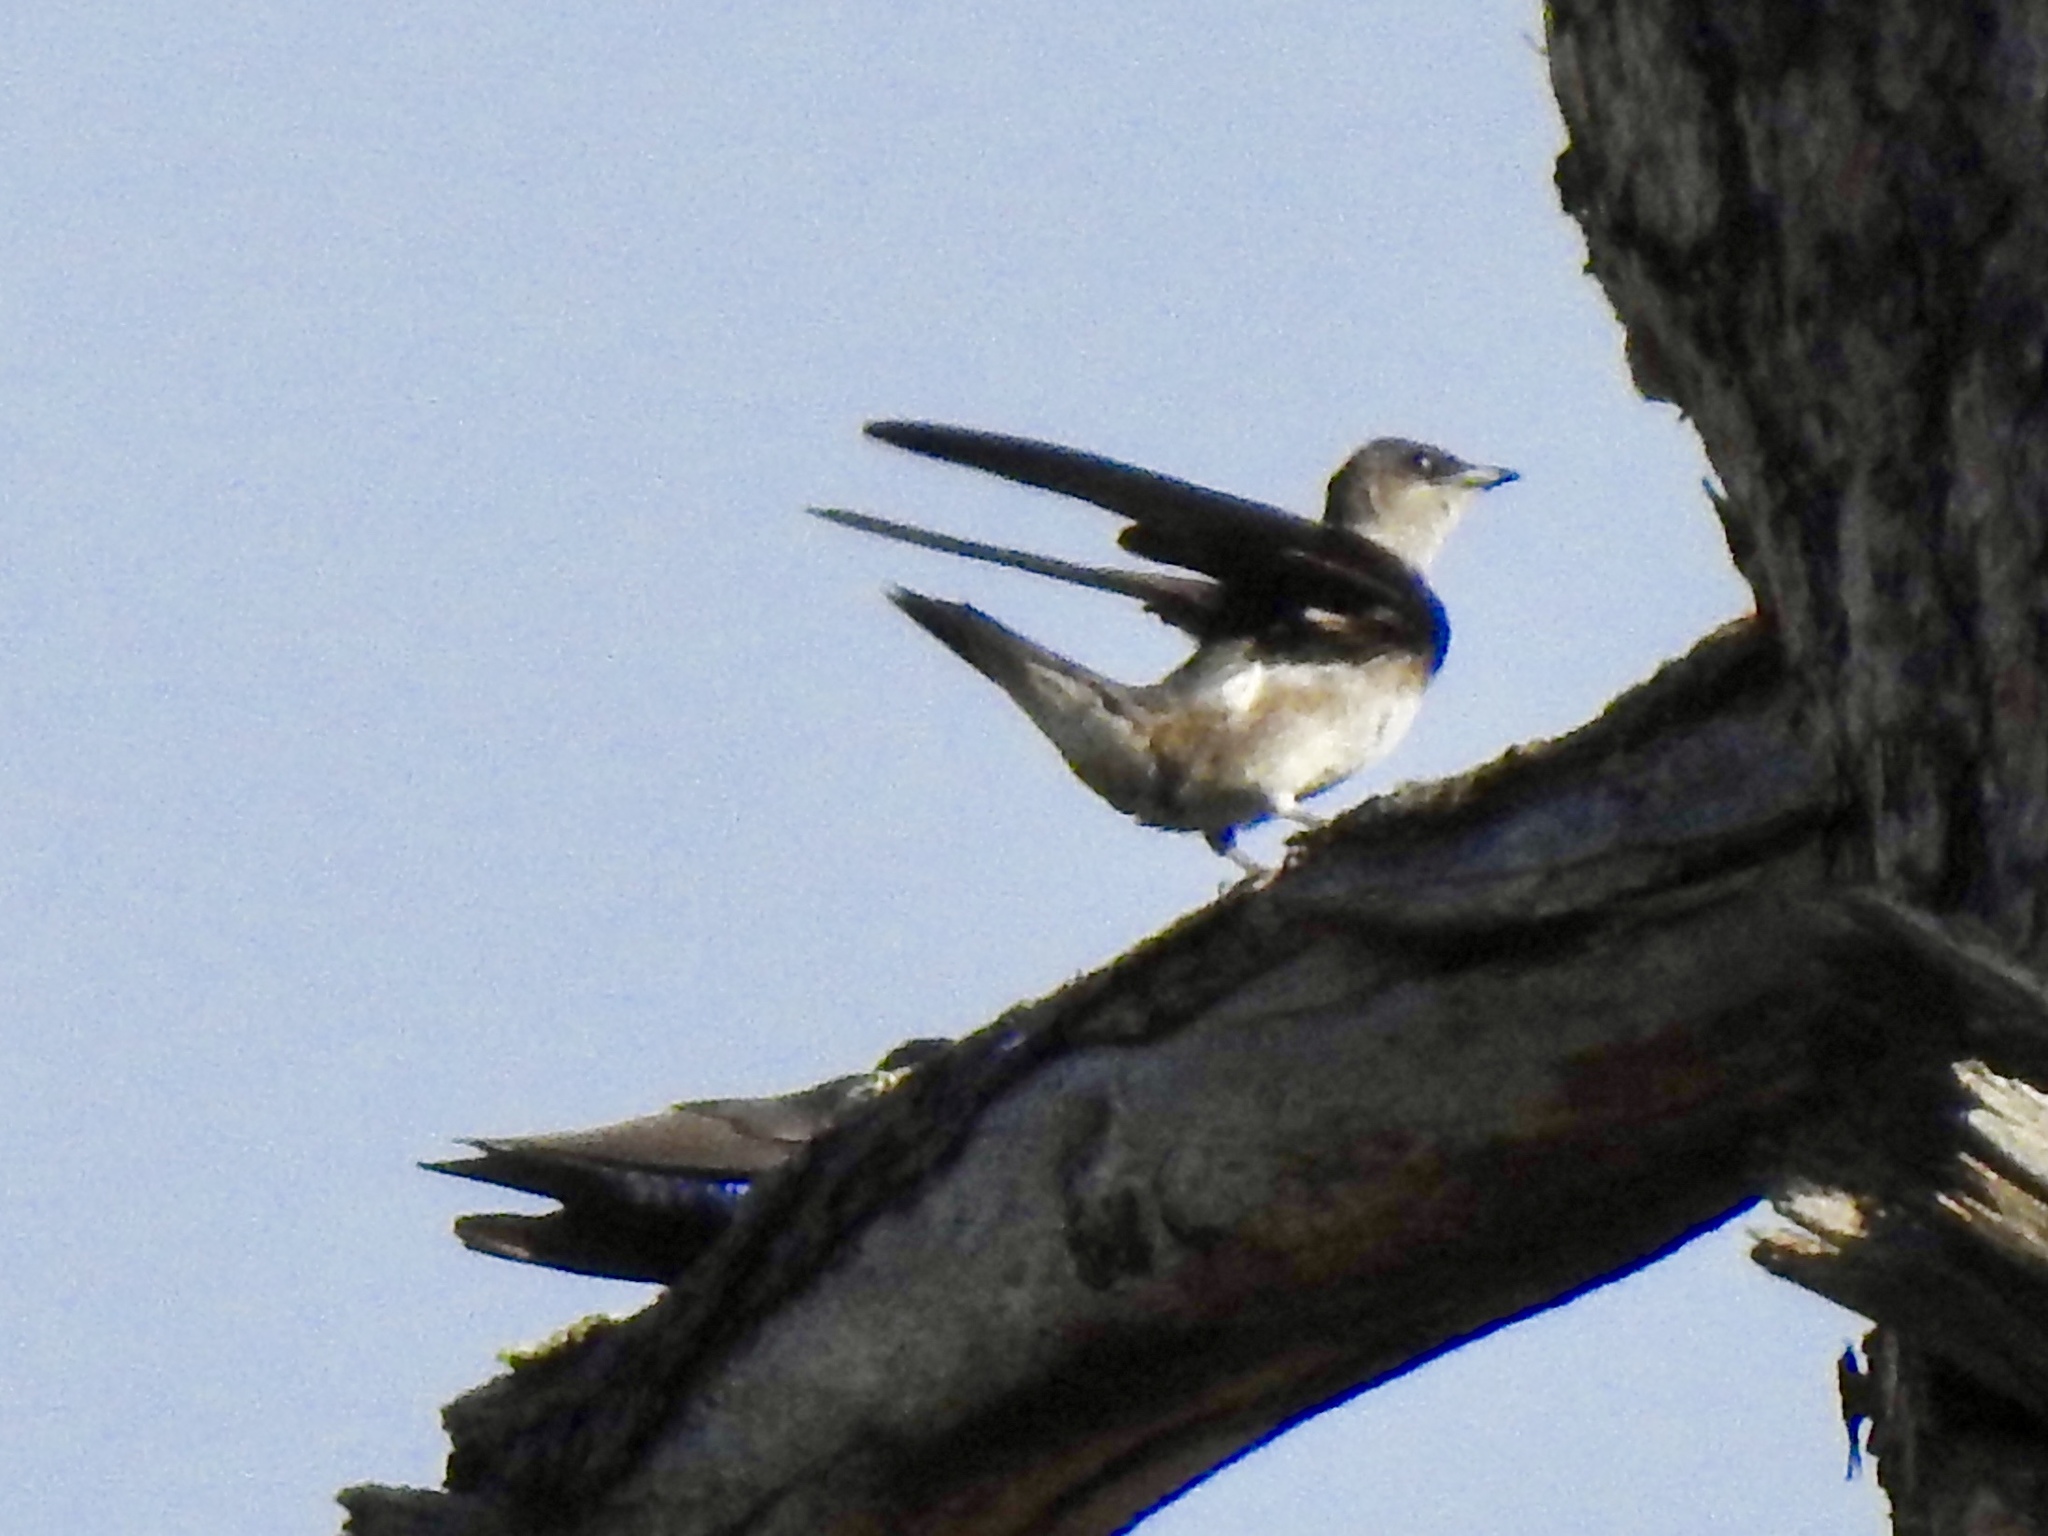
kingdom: Animalia
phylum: Chordata
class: Aves
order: Passeriformes
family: Hirundinidae
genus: Progne
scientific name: Progne subis
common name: Purple martin
